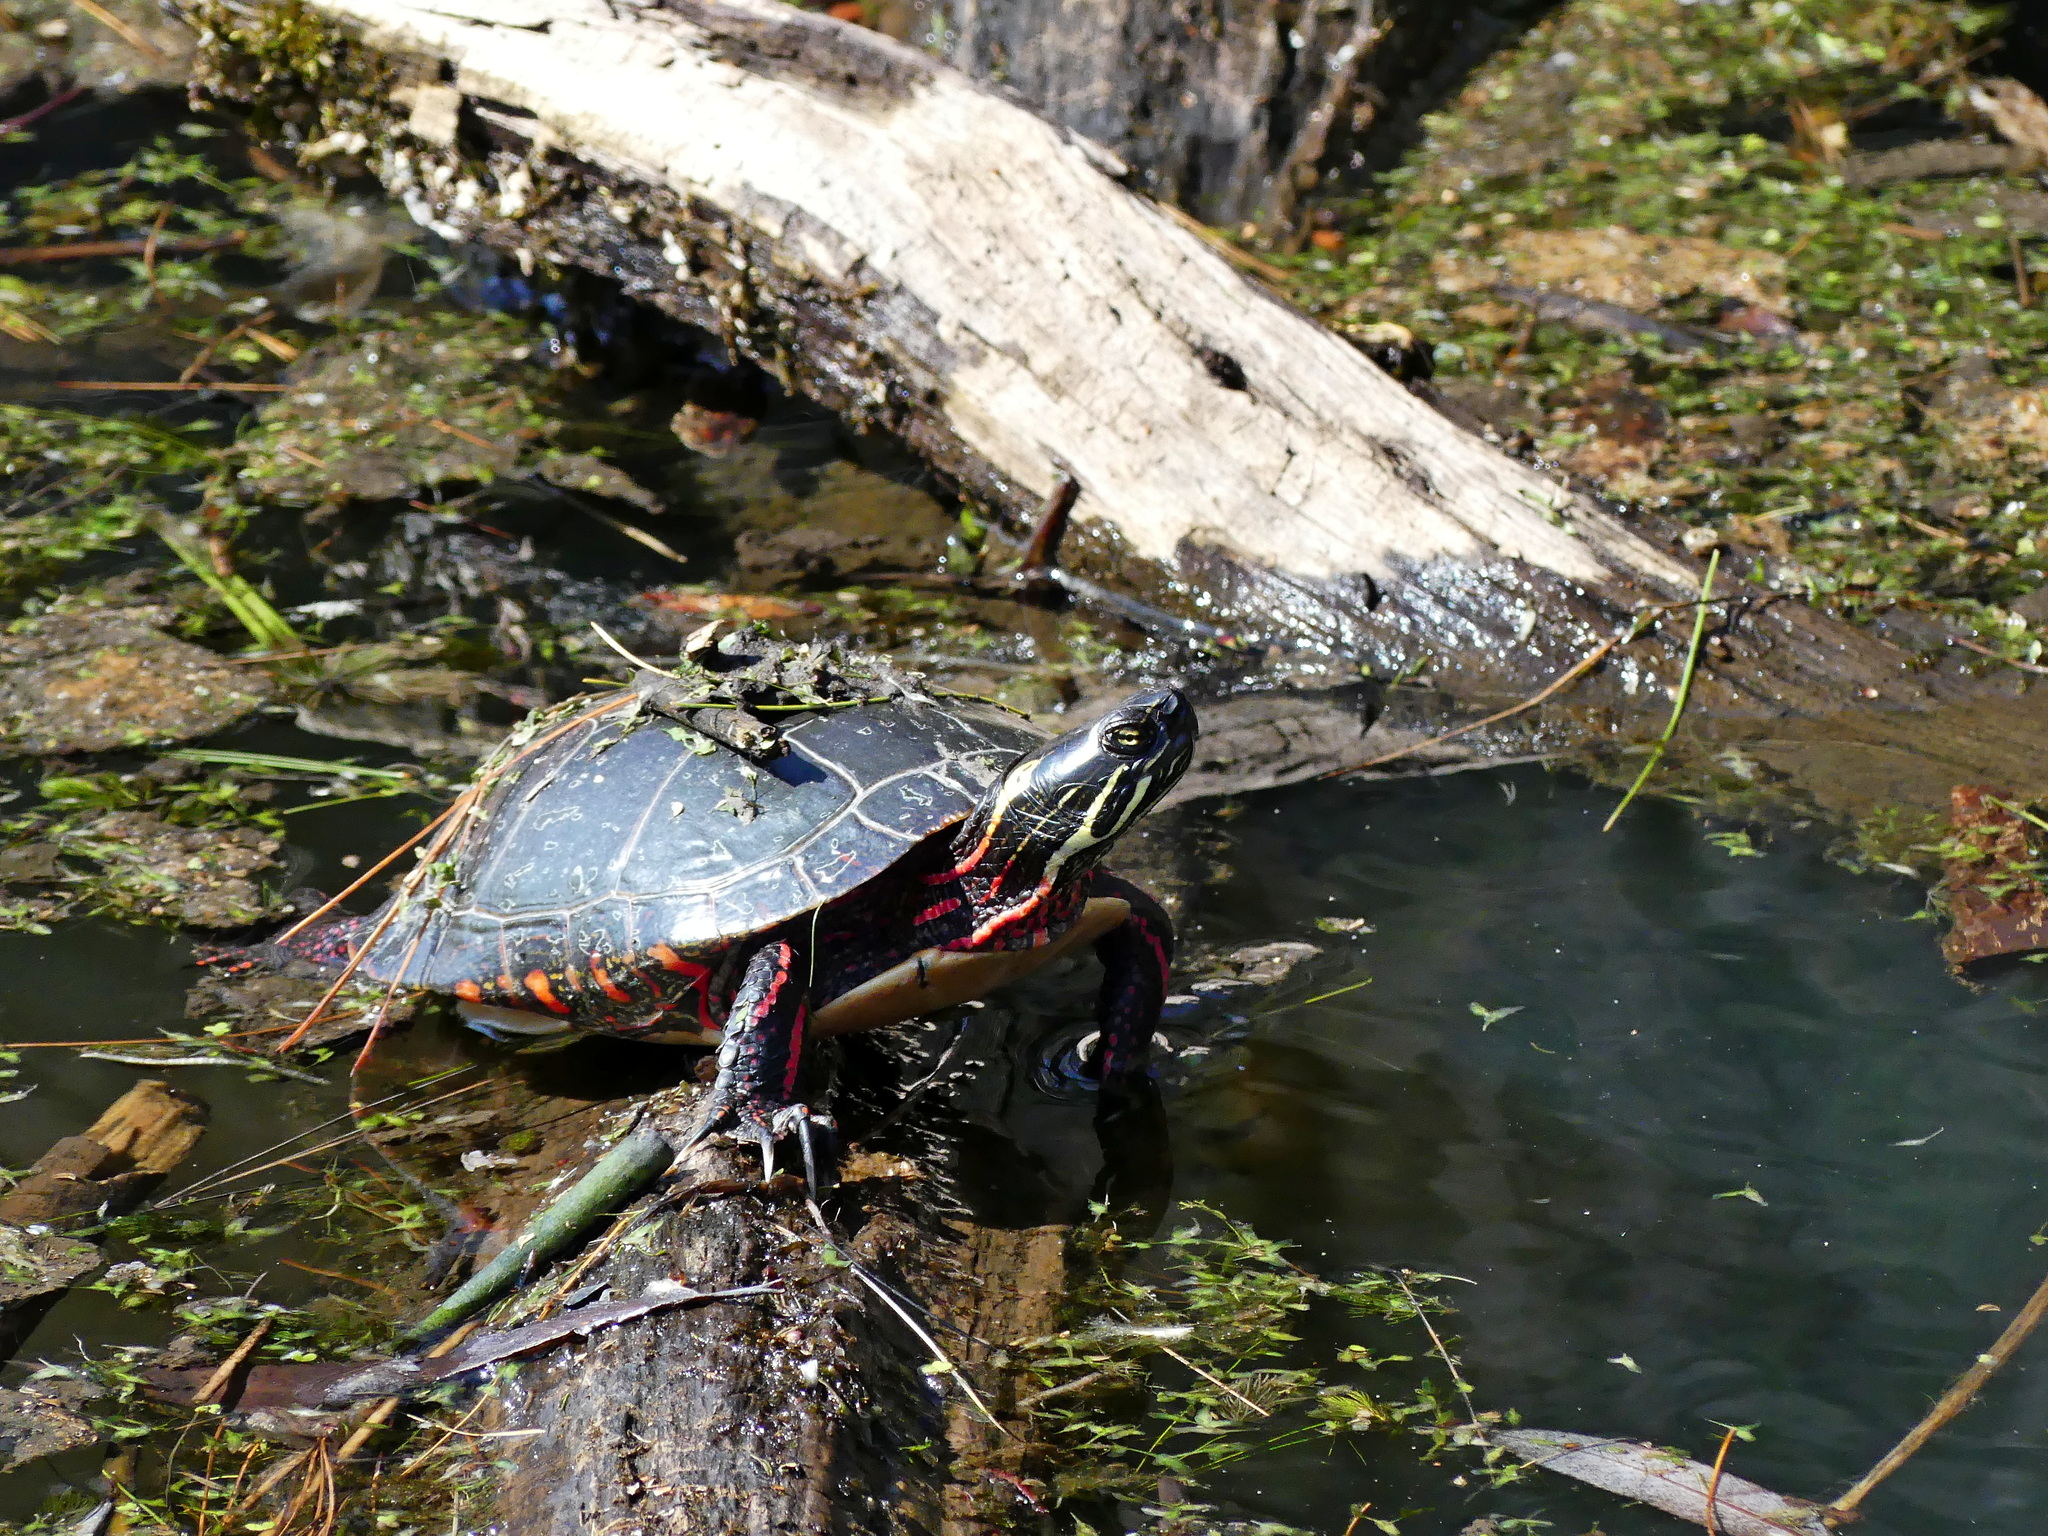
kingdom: Animalia
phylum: Chordata
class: Testudines
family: Emydidae
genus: Chrysemys
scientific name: Chrysemys picta
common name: Painted turtle
